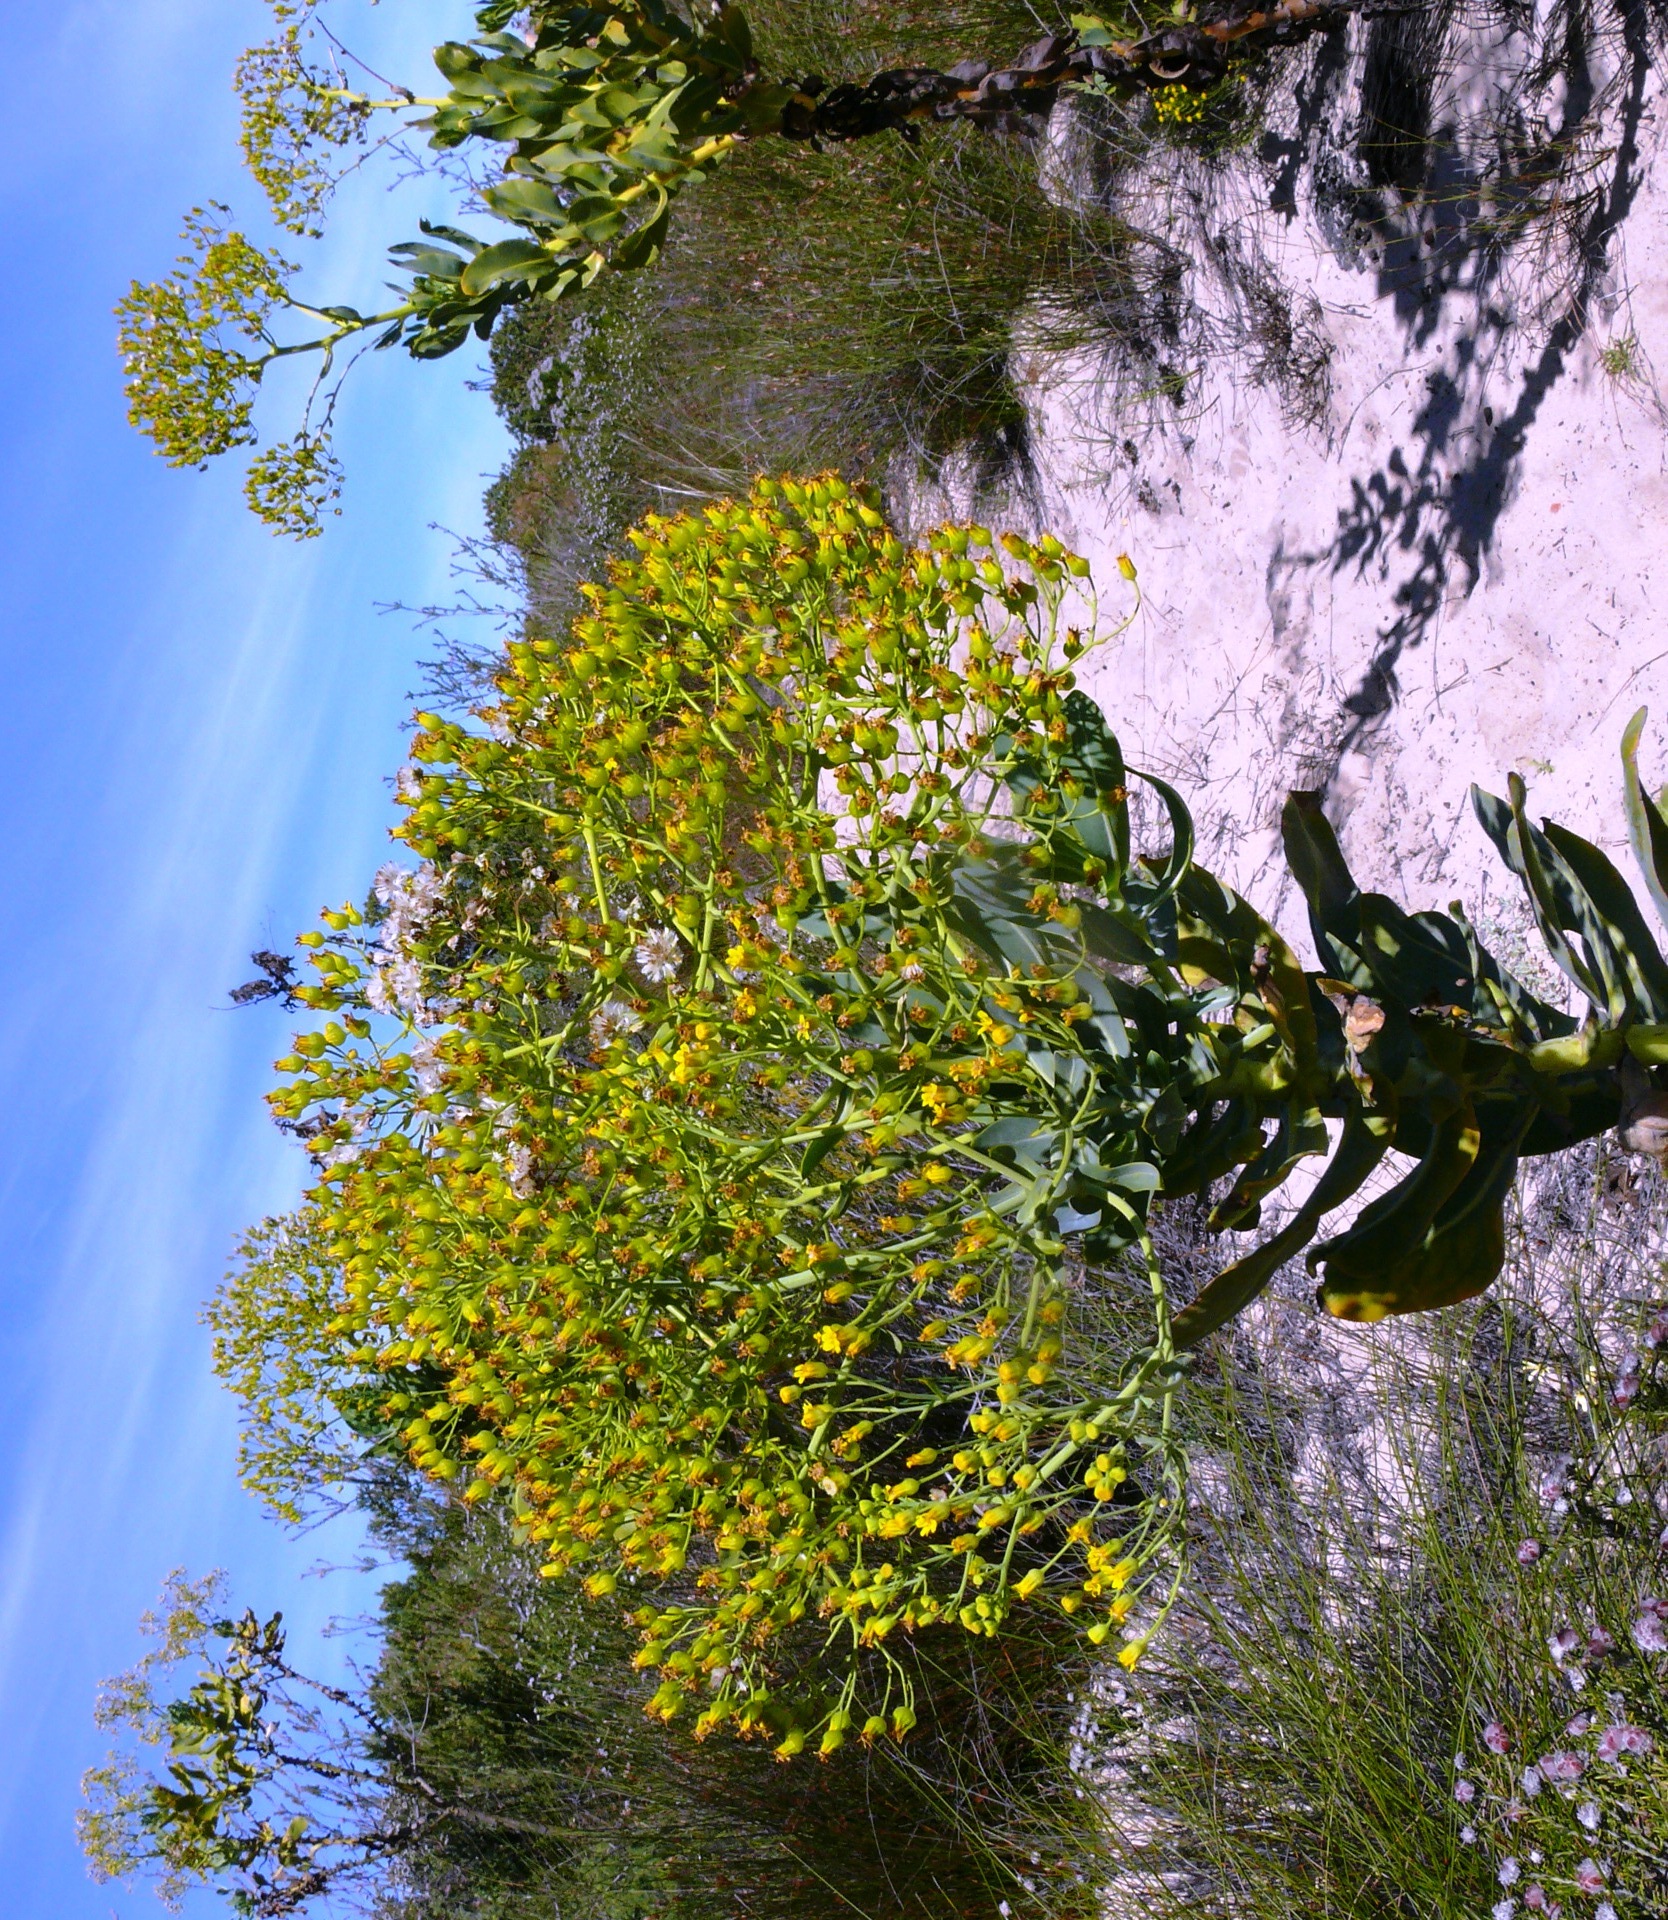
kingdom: Plantae
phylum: Tracheophyta
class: Magnoliopsida
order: Asterales
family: Asteraceae
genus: Othonna
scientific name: Othonna parviflora
